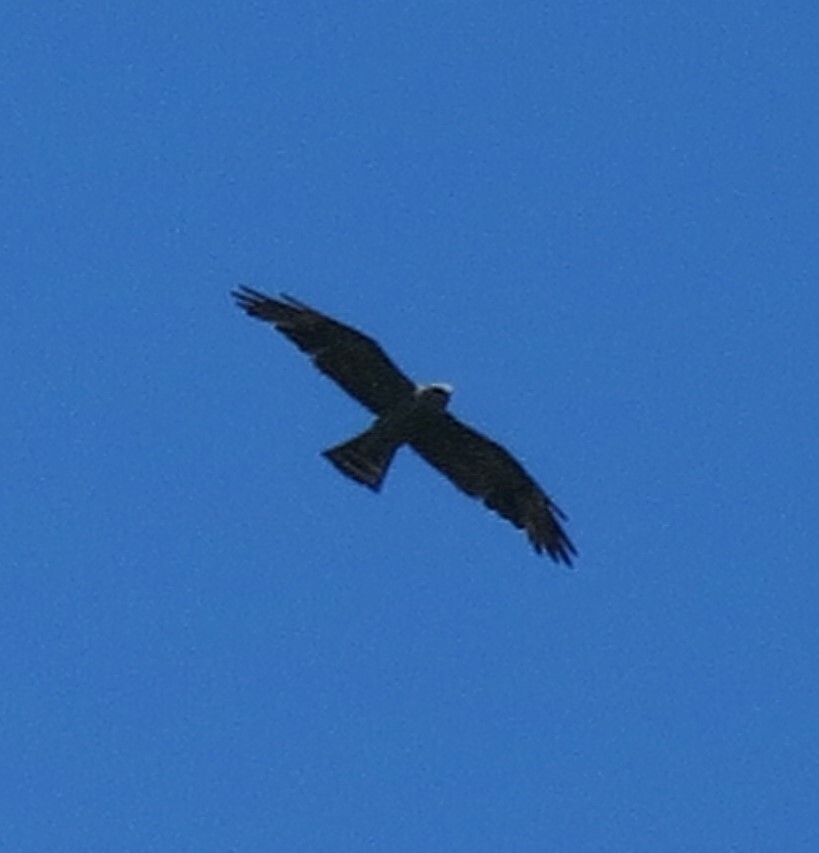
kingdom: Animalia
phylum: Chordata
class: Aves
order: Accipitriformes
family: Accipitridae
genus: Ictinia
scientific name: Ictinia mississippiensis
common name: Mississippi kite
